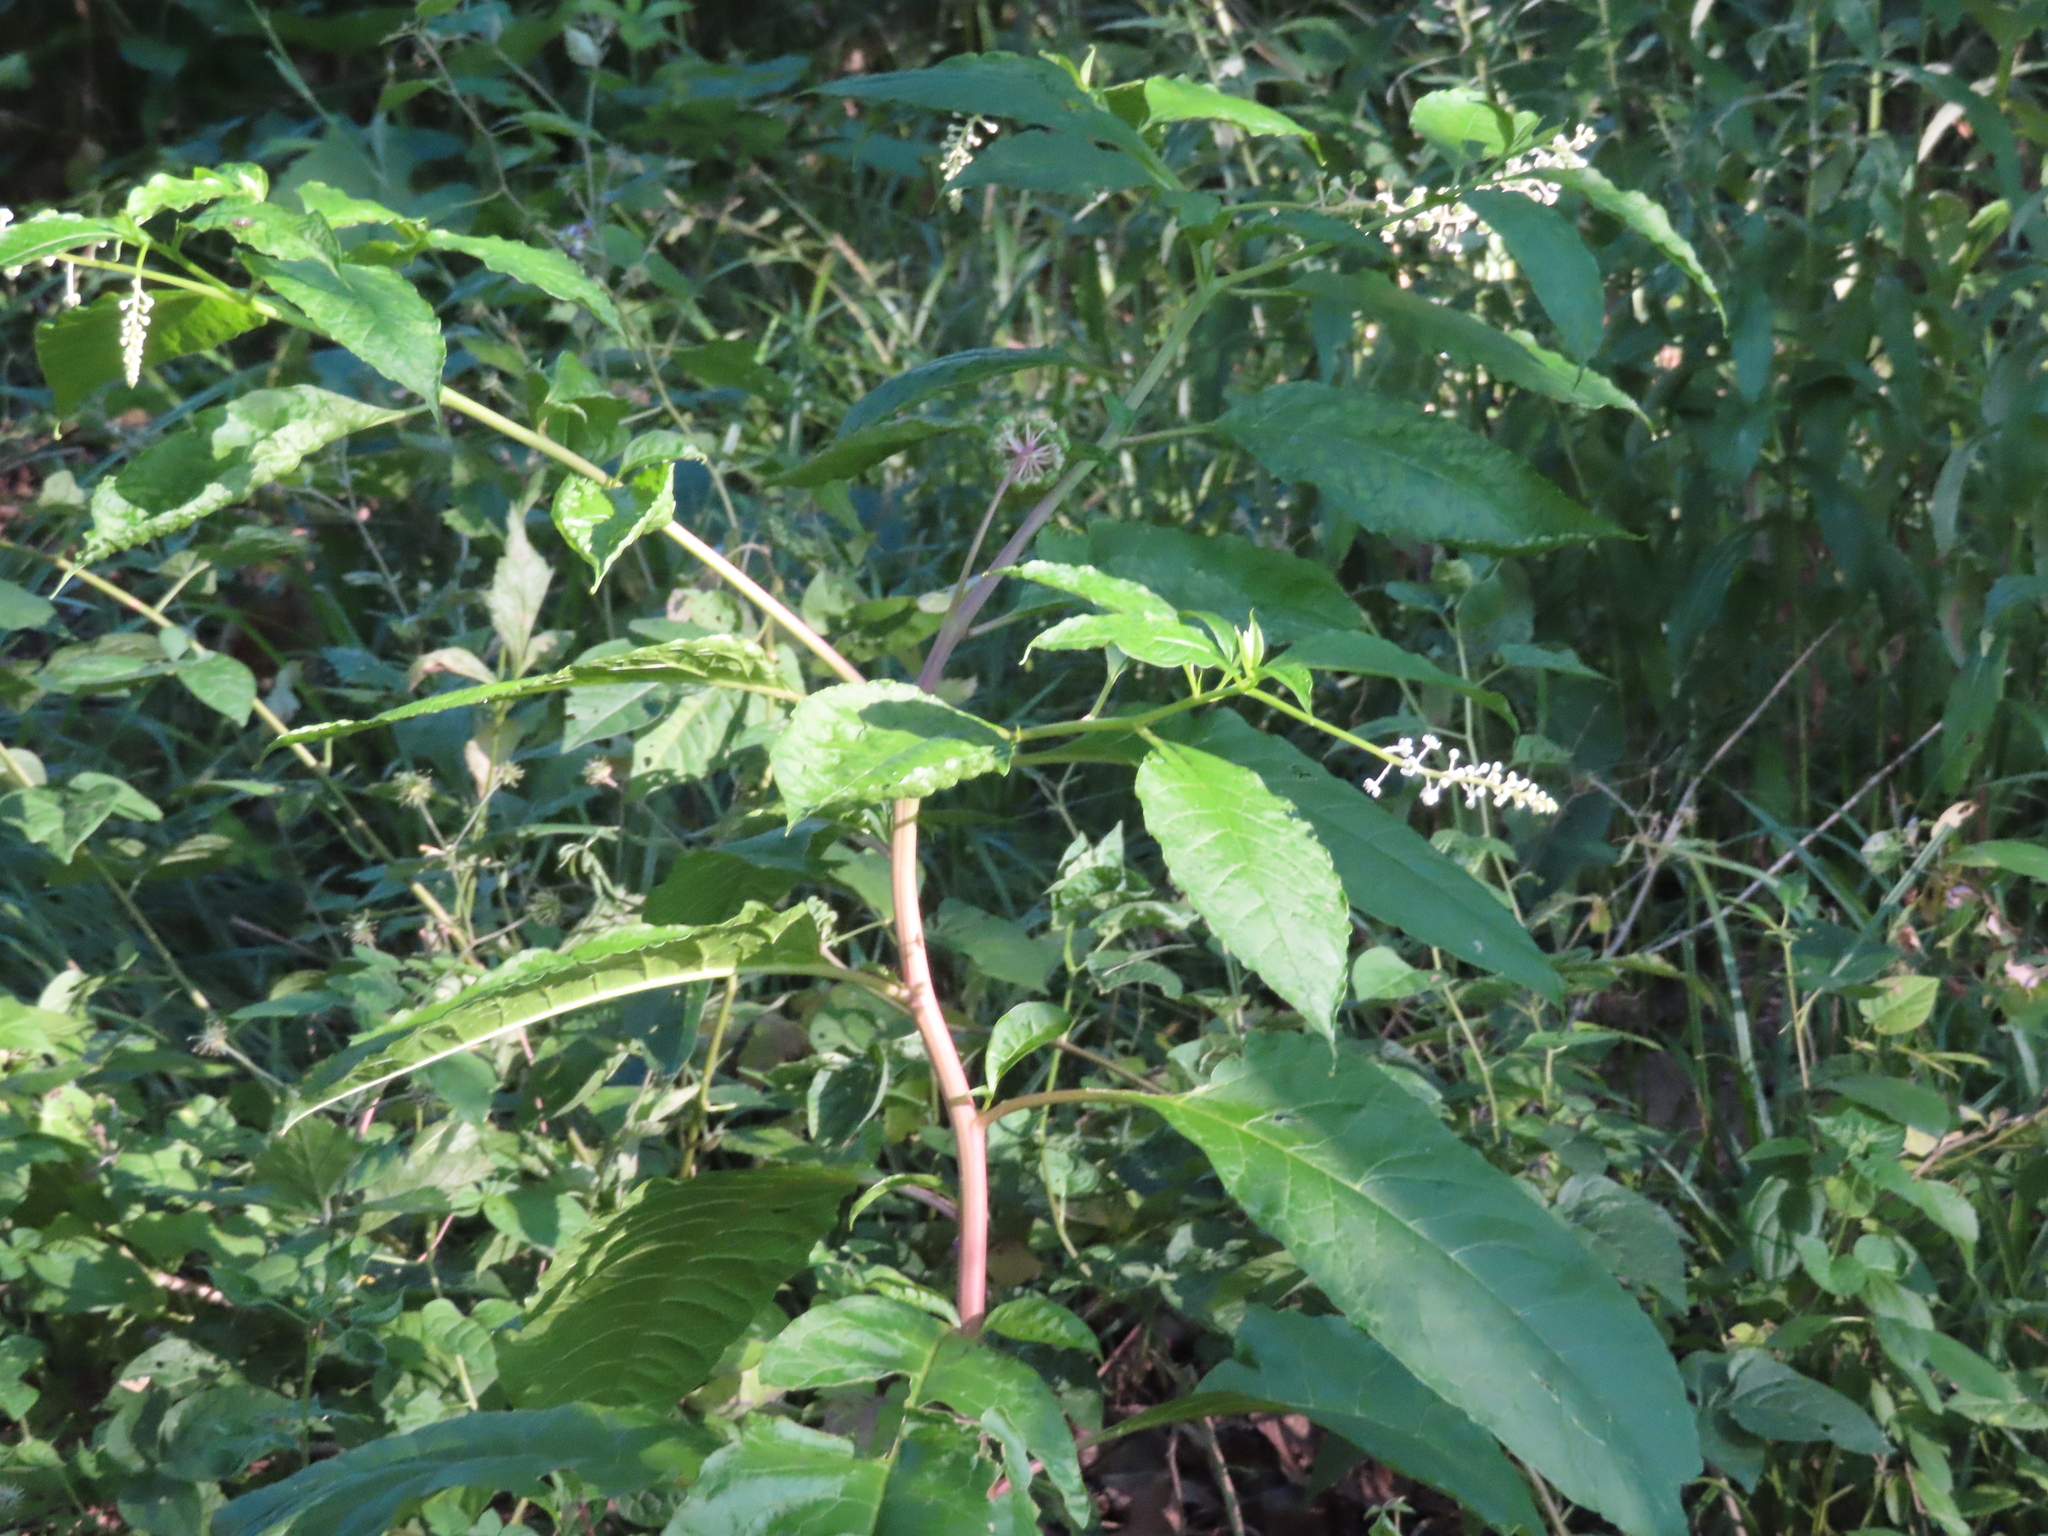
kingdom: Plantae
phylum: Tracheophyta
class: Magnoliopsida
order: Caryophyllales
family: Phytolaccaceae
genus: Phytolacca
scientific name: Phytolacca americana
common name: American pokeweed
